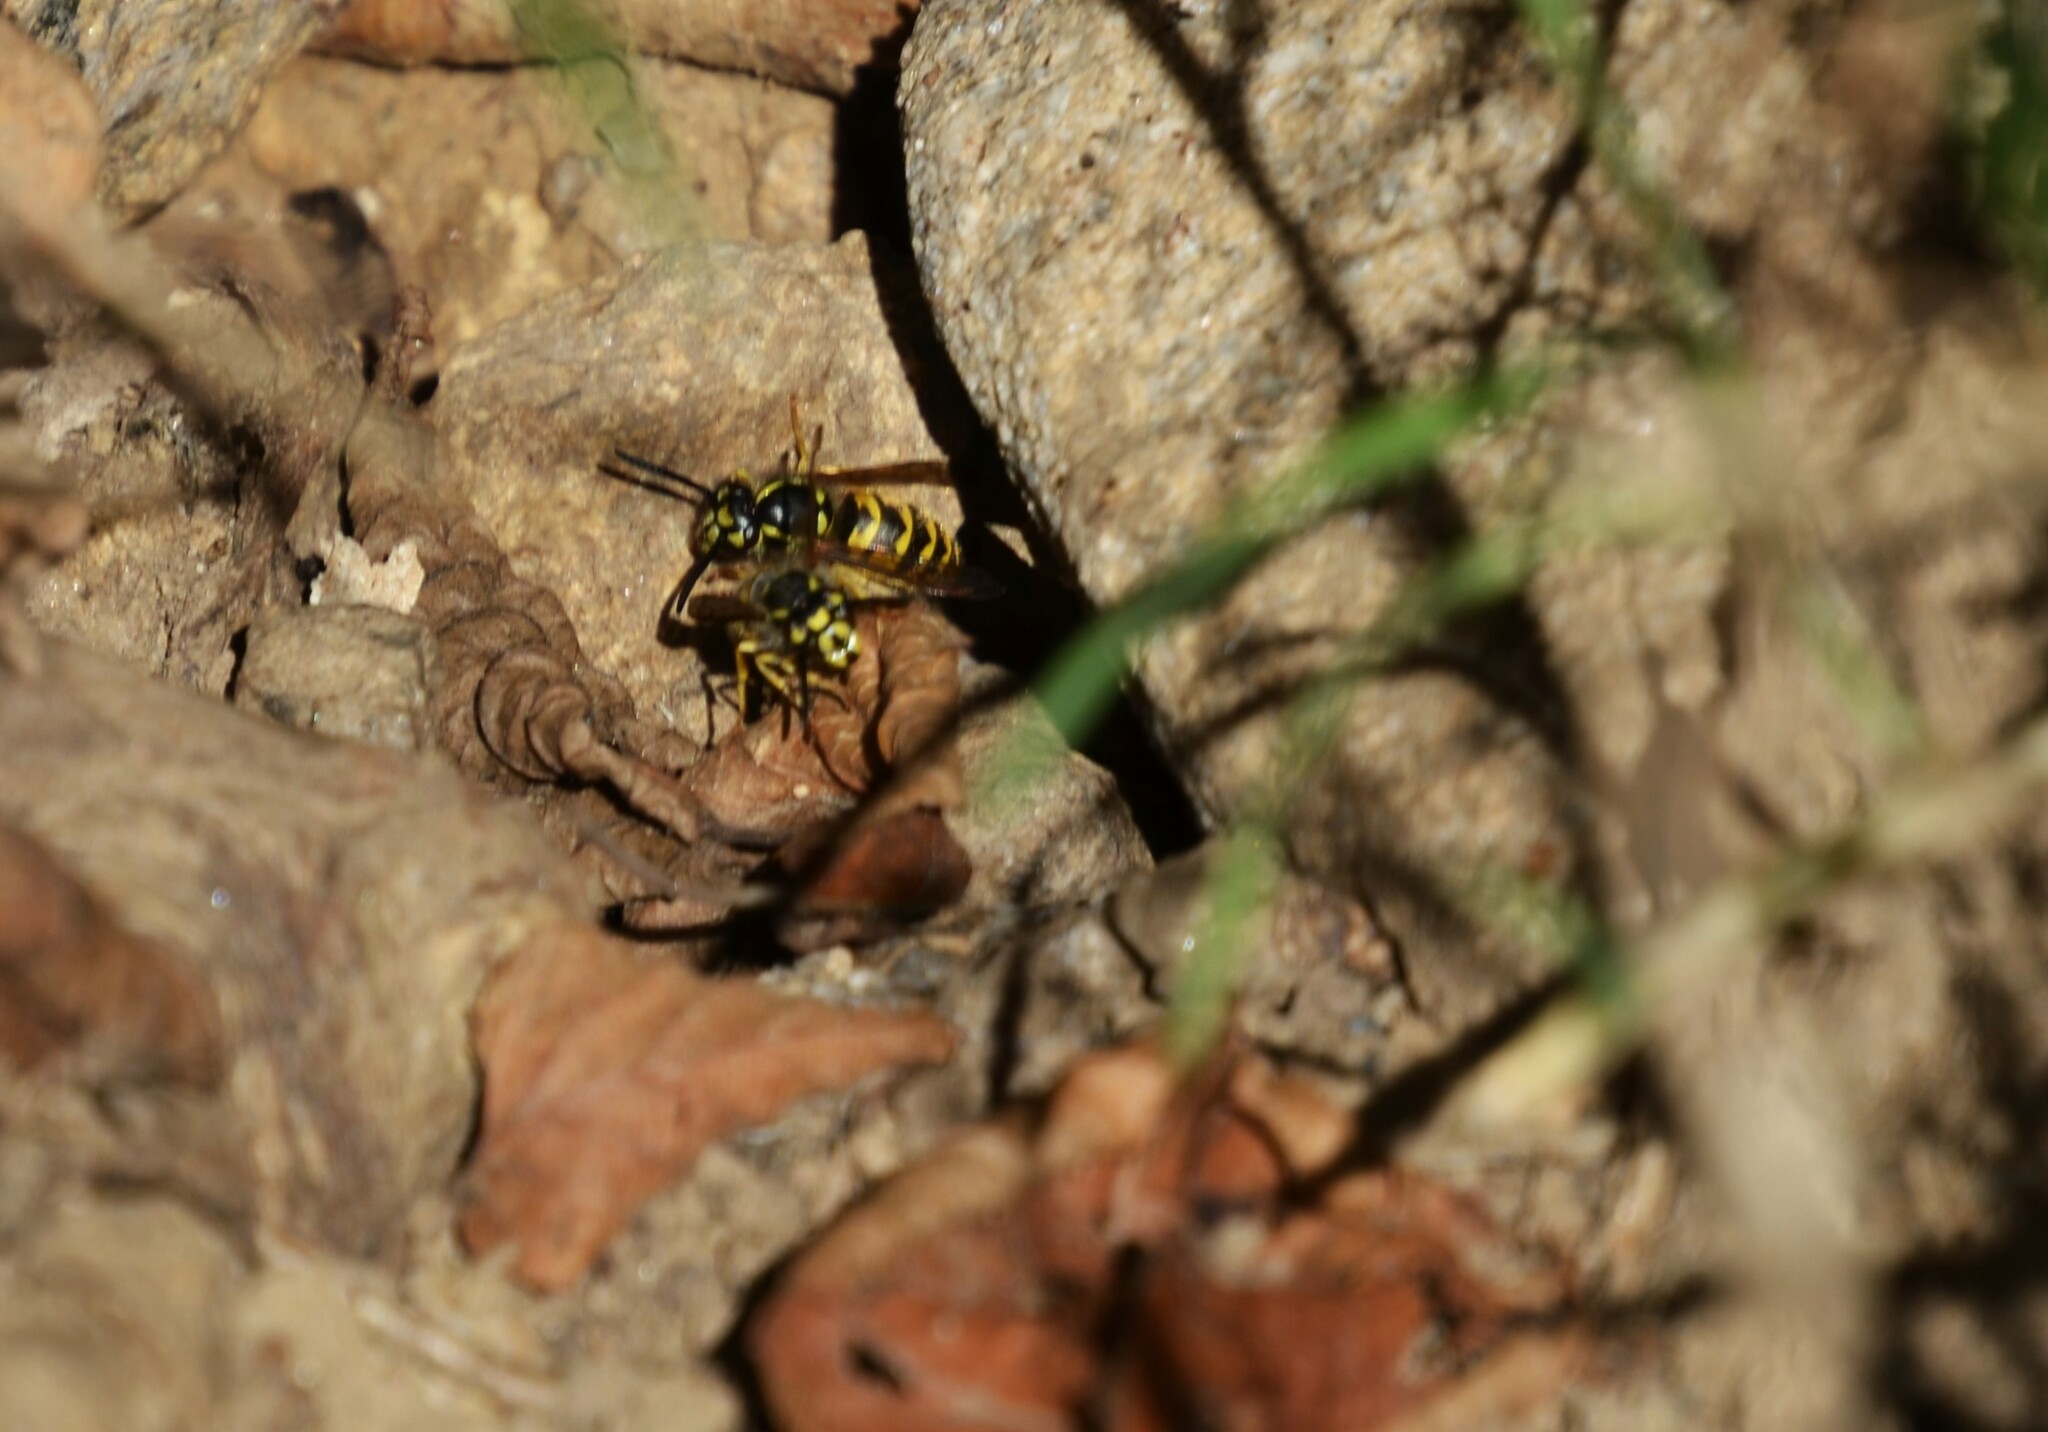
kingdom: Animalia
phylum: Arthropoda
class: Insecta
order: Hymenoptera
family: Vespidae
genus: Vespula
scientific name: Vespula vulgaris
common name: Common wasp
